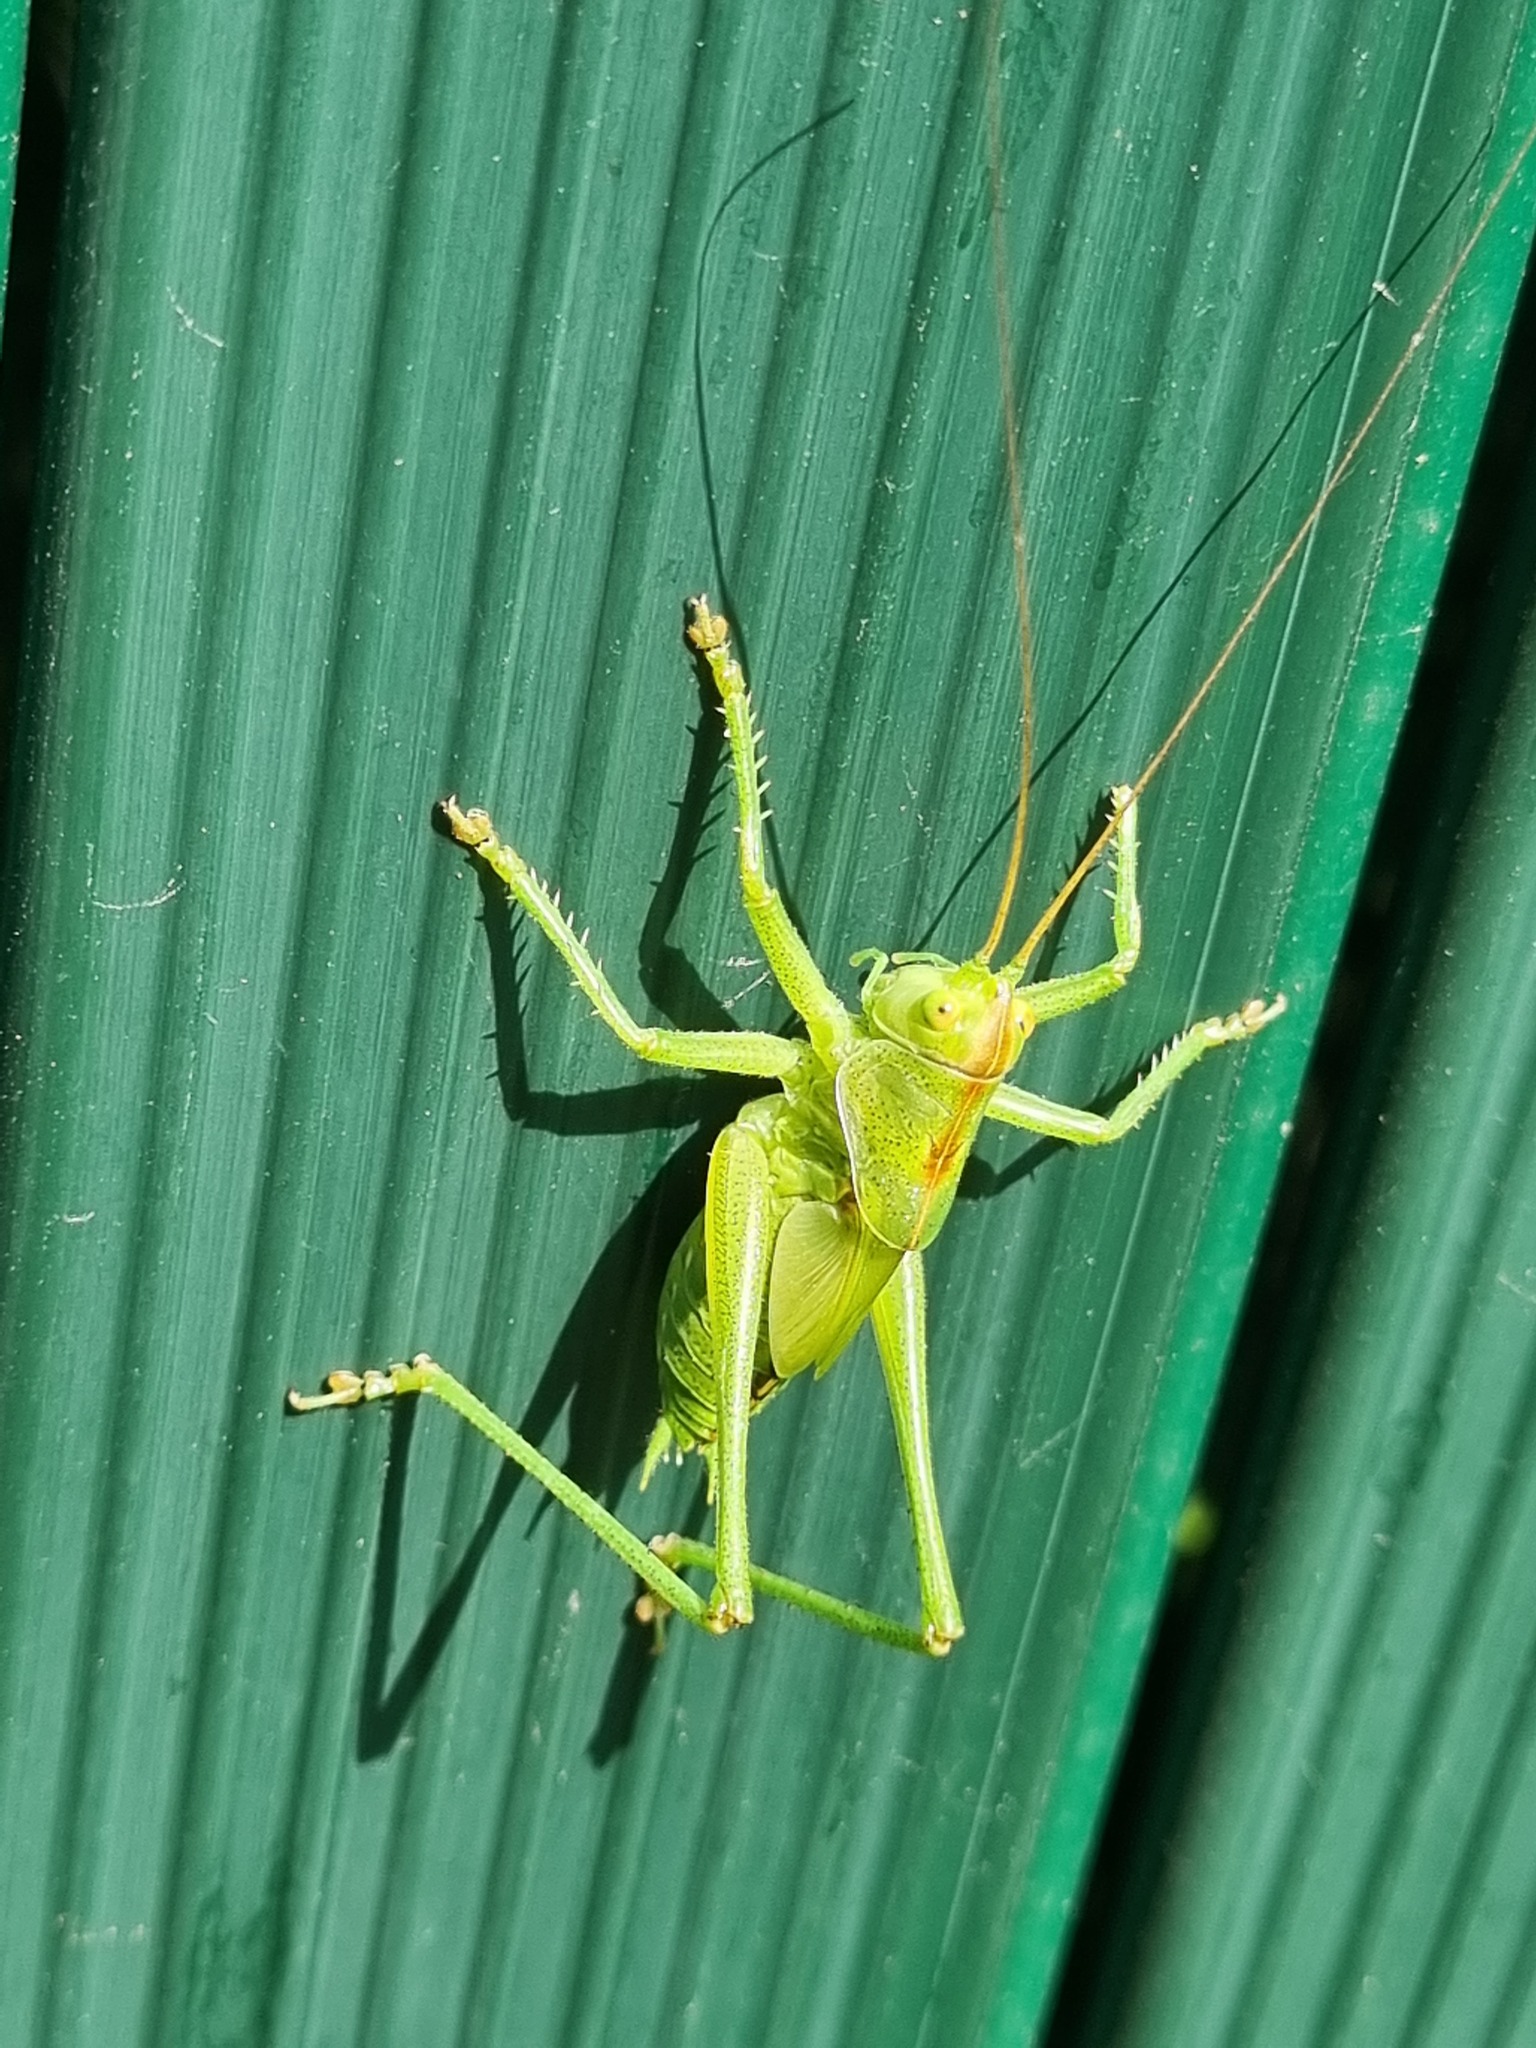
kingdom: Animalia
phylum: Arthropoda
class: Insecta
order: Orthoptera
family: Tettigoniidae
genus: Tettigonia
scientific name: Tettigonia viridissima
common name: Great green bush-cricket
